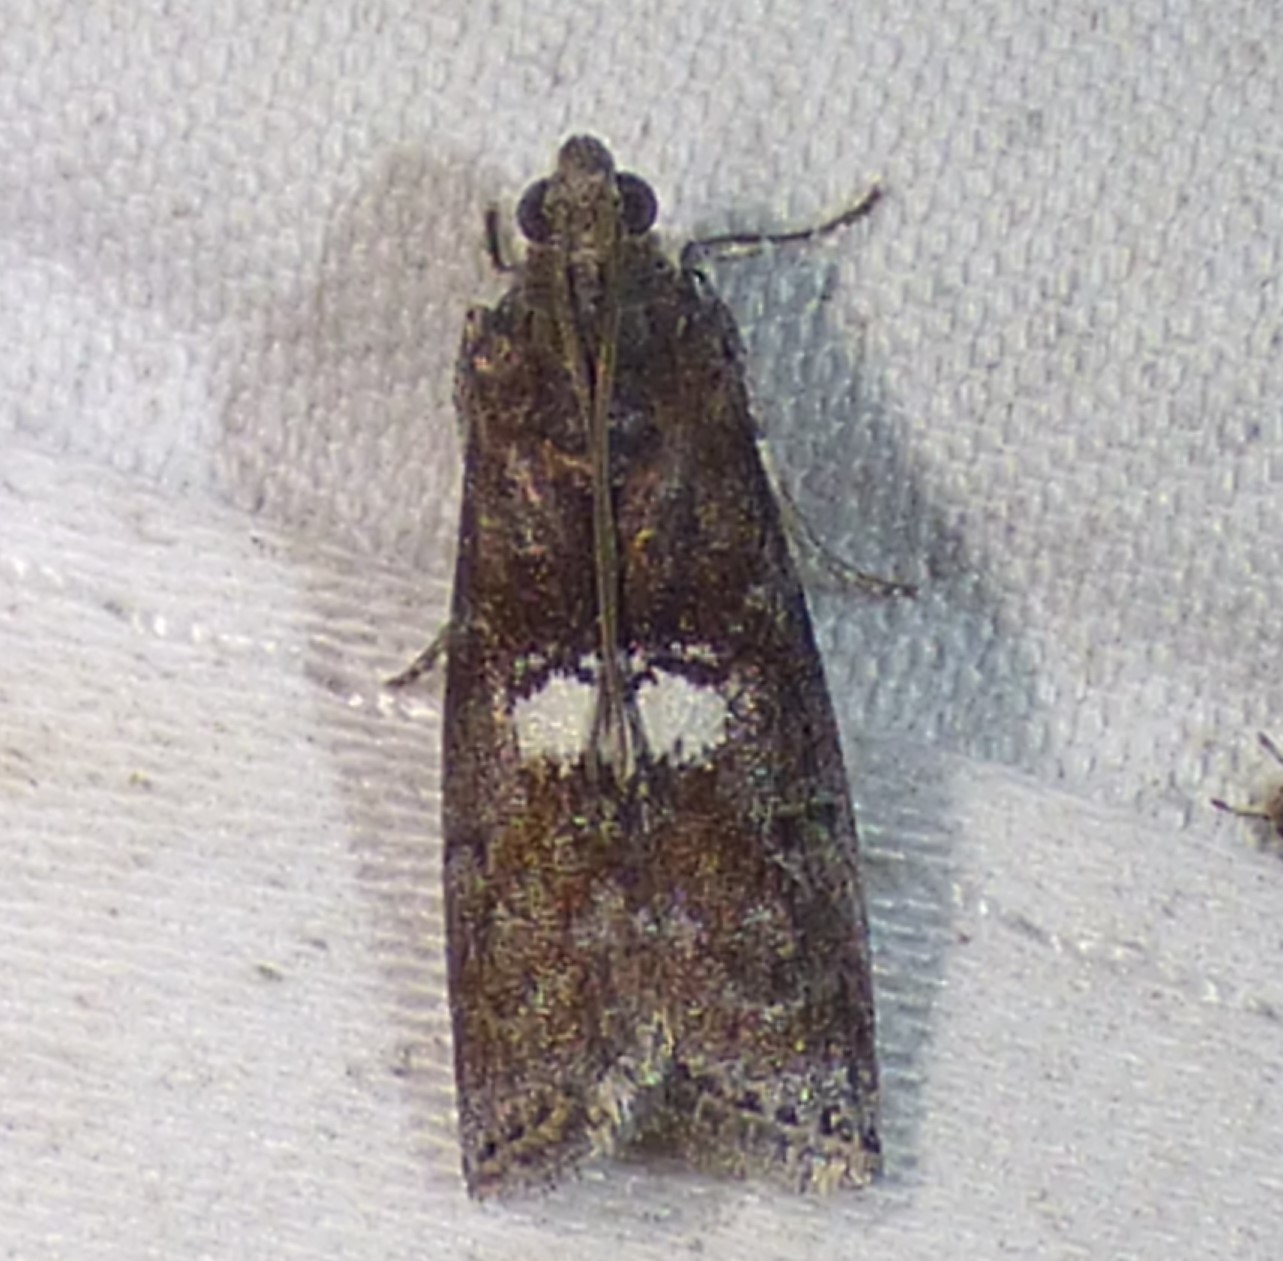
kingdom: Animalia
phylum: Arthropoda
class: Insecta
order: Lepidoptera
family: Pyralidae
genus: Salebriaria
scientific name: Salebriaria engeli
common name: Engel's salebriaria moth
